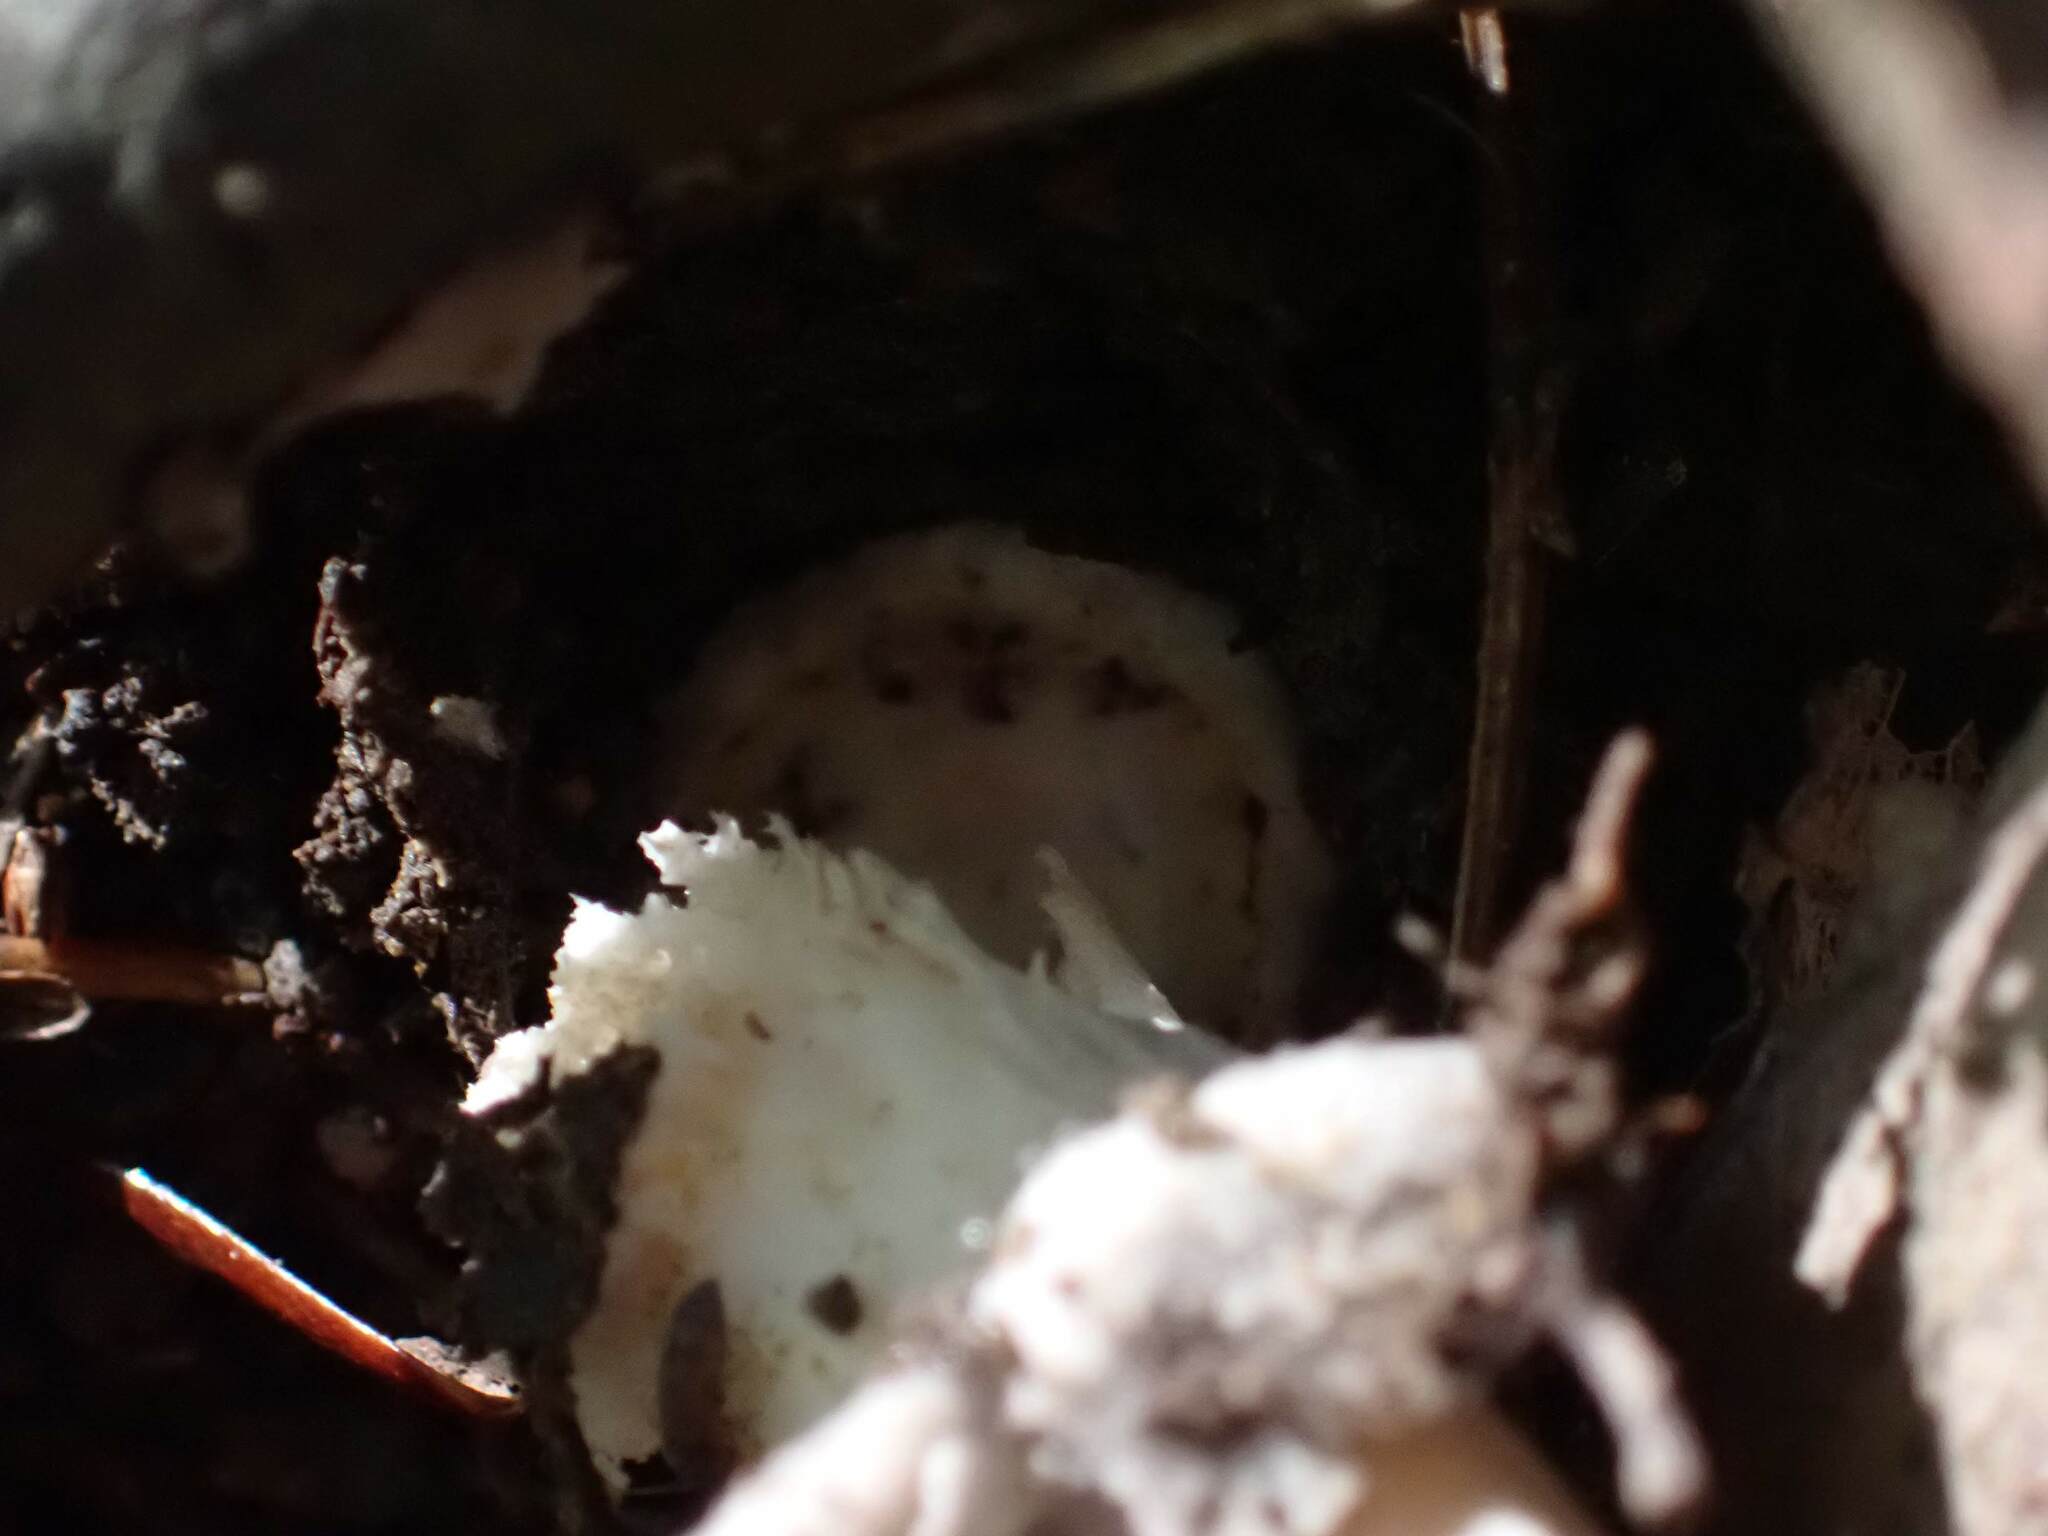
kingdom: Fungi
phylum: Basidiomycota
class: Agaricomycetes
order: Agaricales
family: Amanitaceae
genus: Amanita
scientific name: Amanita
